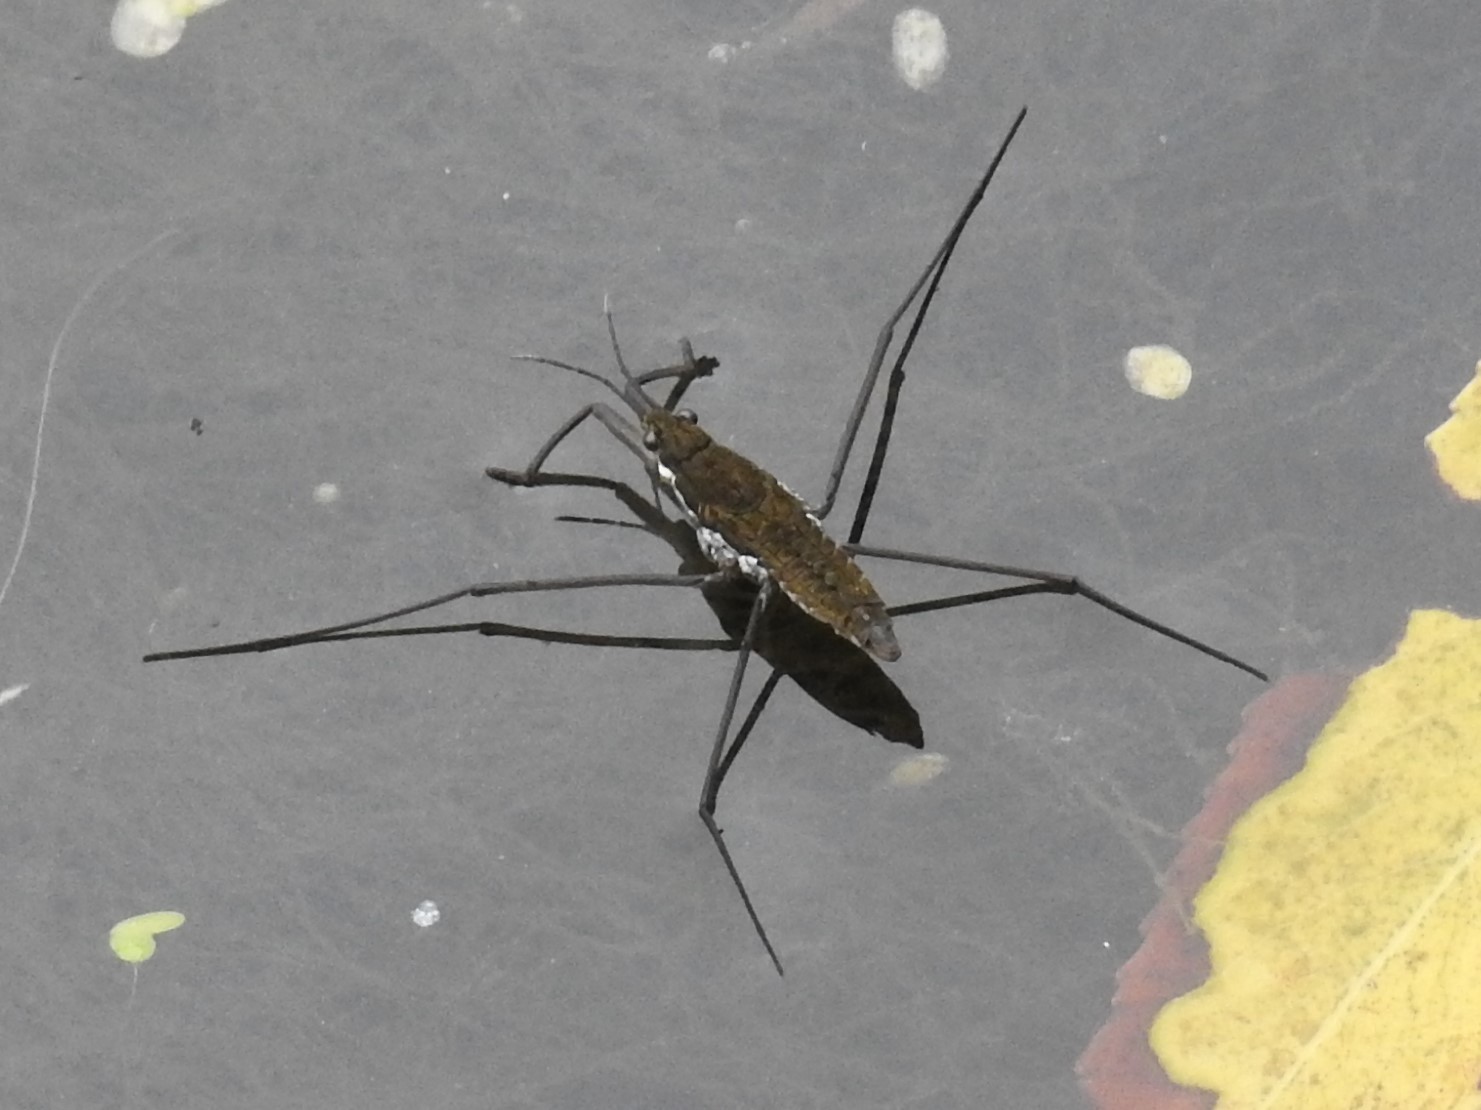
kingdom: Animalia
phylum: Arthropoda
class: Insecta
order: Hemiptera
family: Gerridae
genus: Aquarius
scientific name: Aquarius remigis
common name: Common water strider
